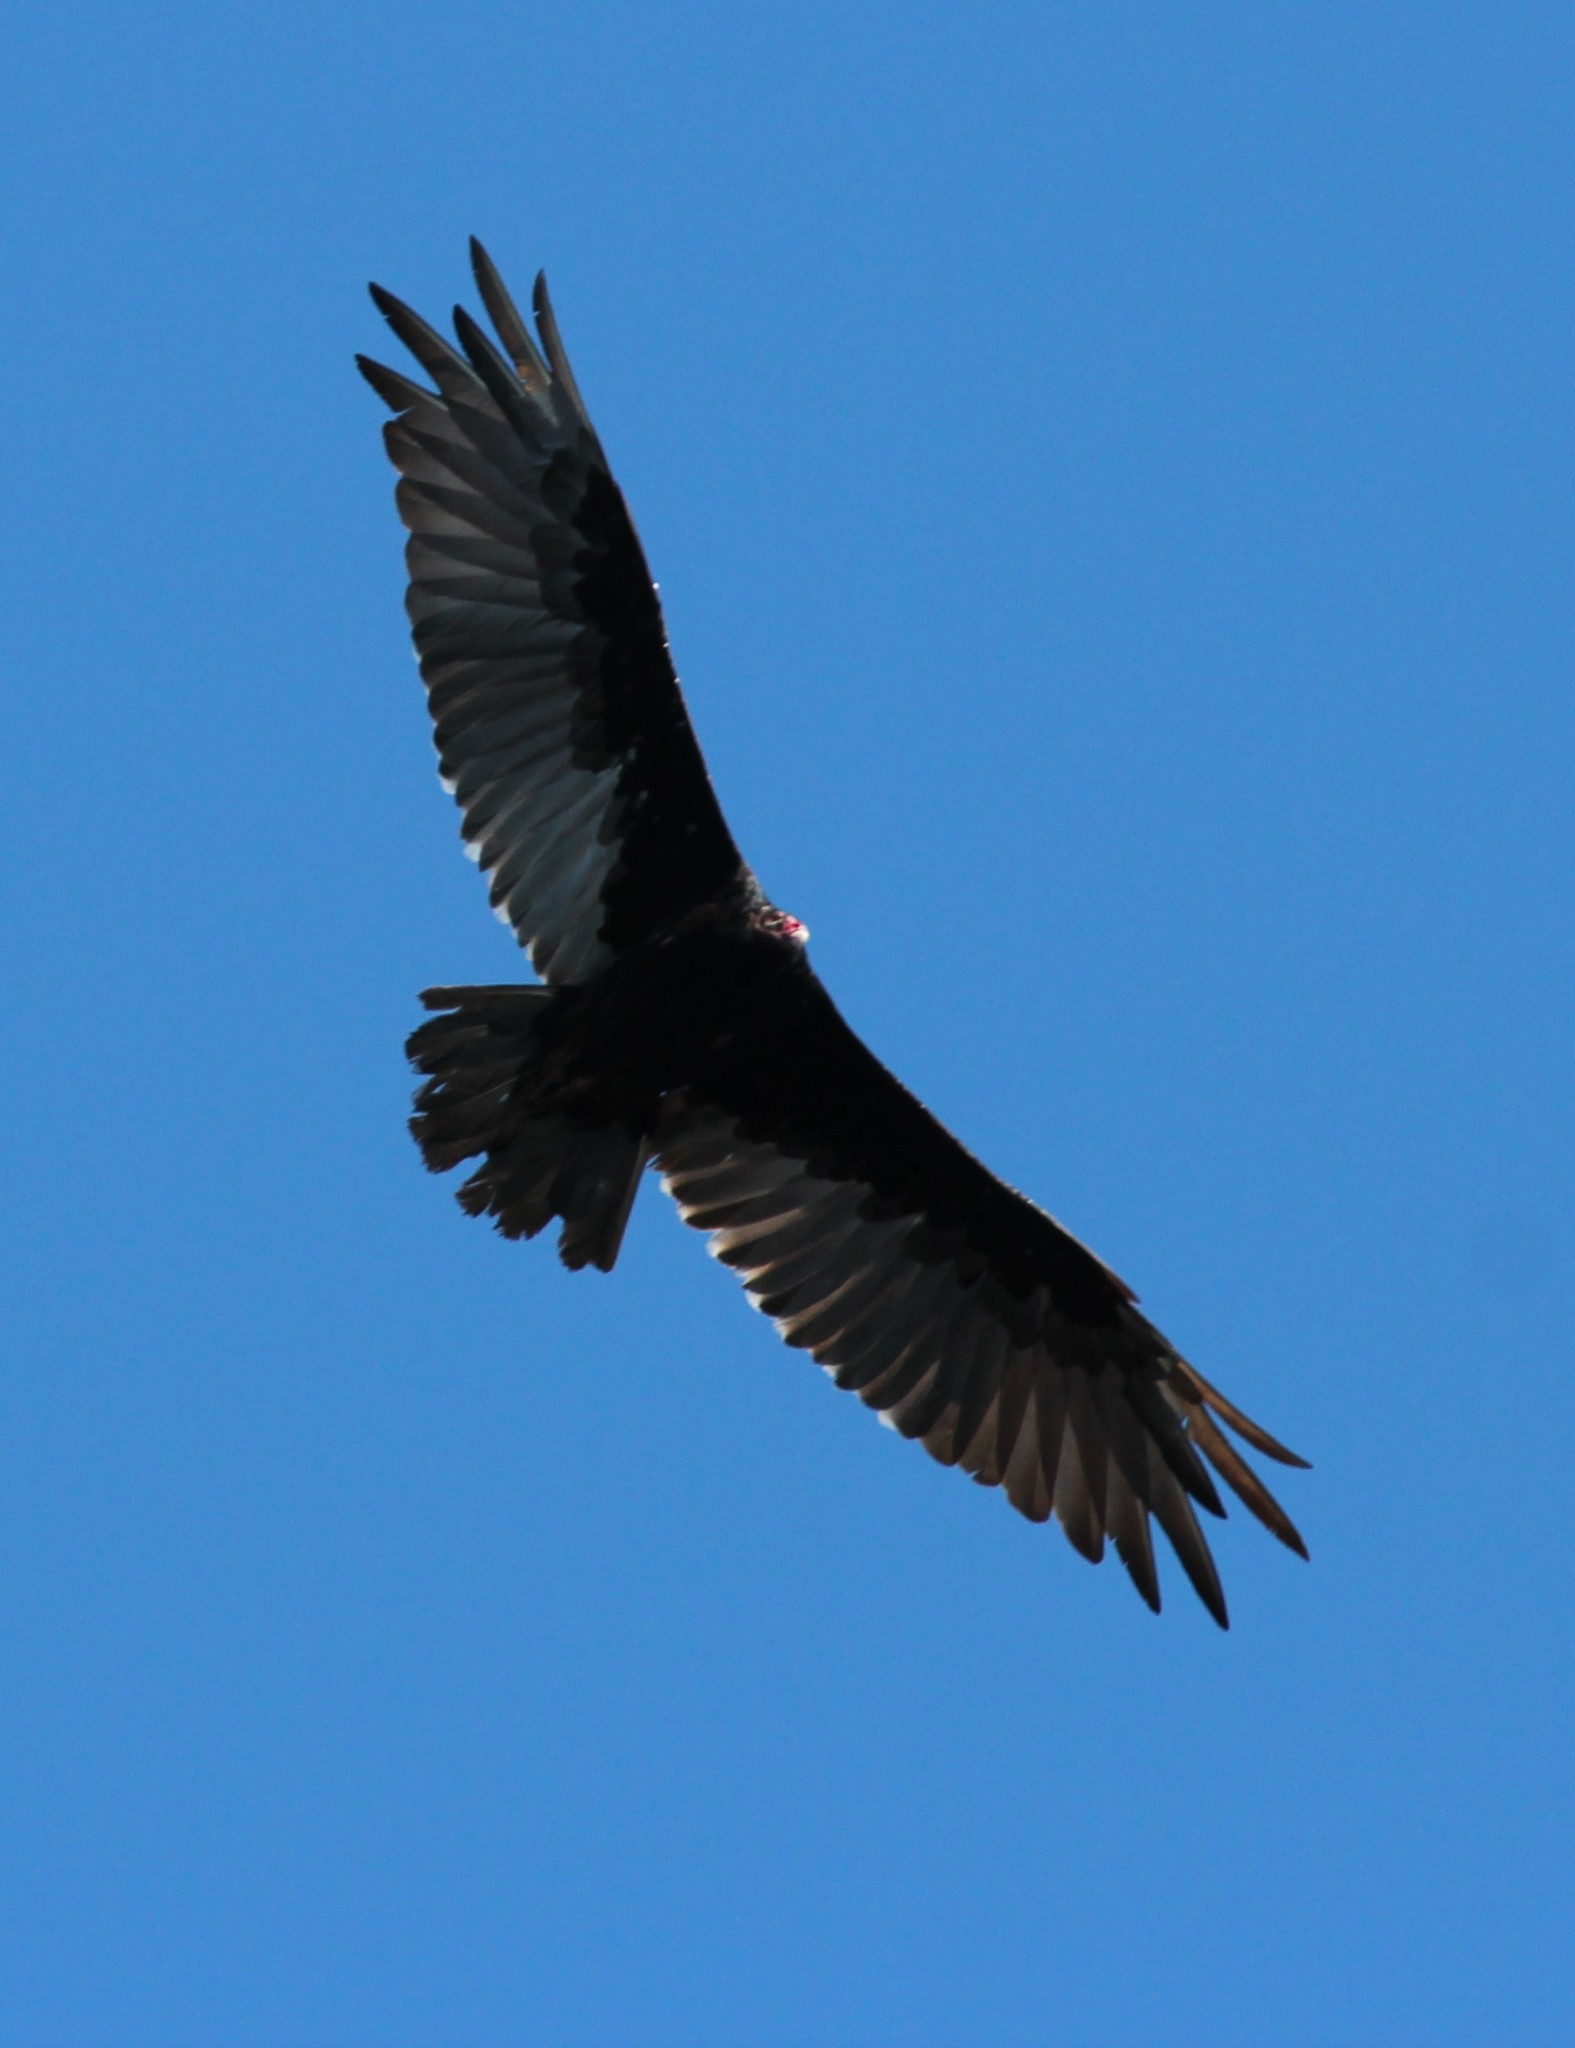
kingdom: Animalia
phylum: Chordata
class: Aves
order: Accipitriformes
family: Cathartidae
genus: Cathartes
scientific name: Cathartes aura
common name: Turkey vulture
